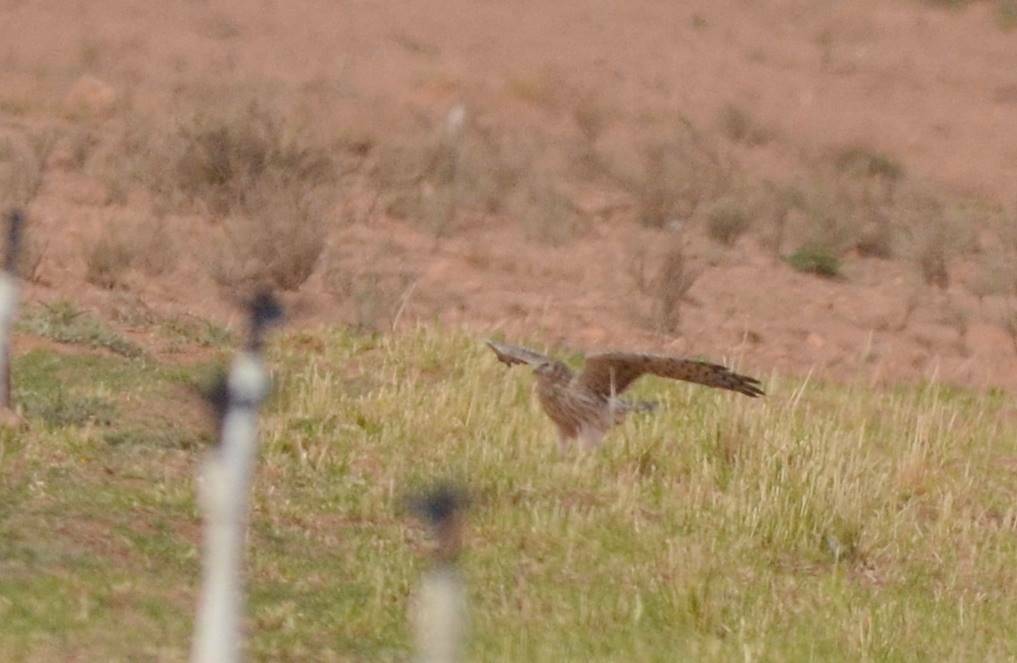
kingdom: Animalia
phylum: Chordata
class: Aves
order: Accipitriformes
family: Accipitridae
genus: Circus
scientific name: Circus pygargus
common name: Montagu's harrier
